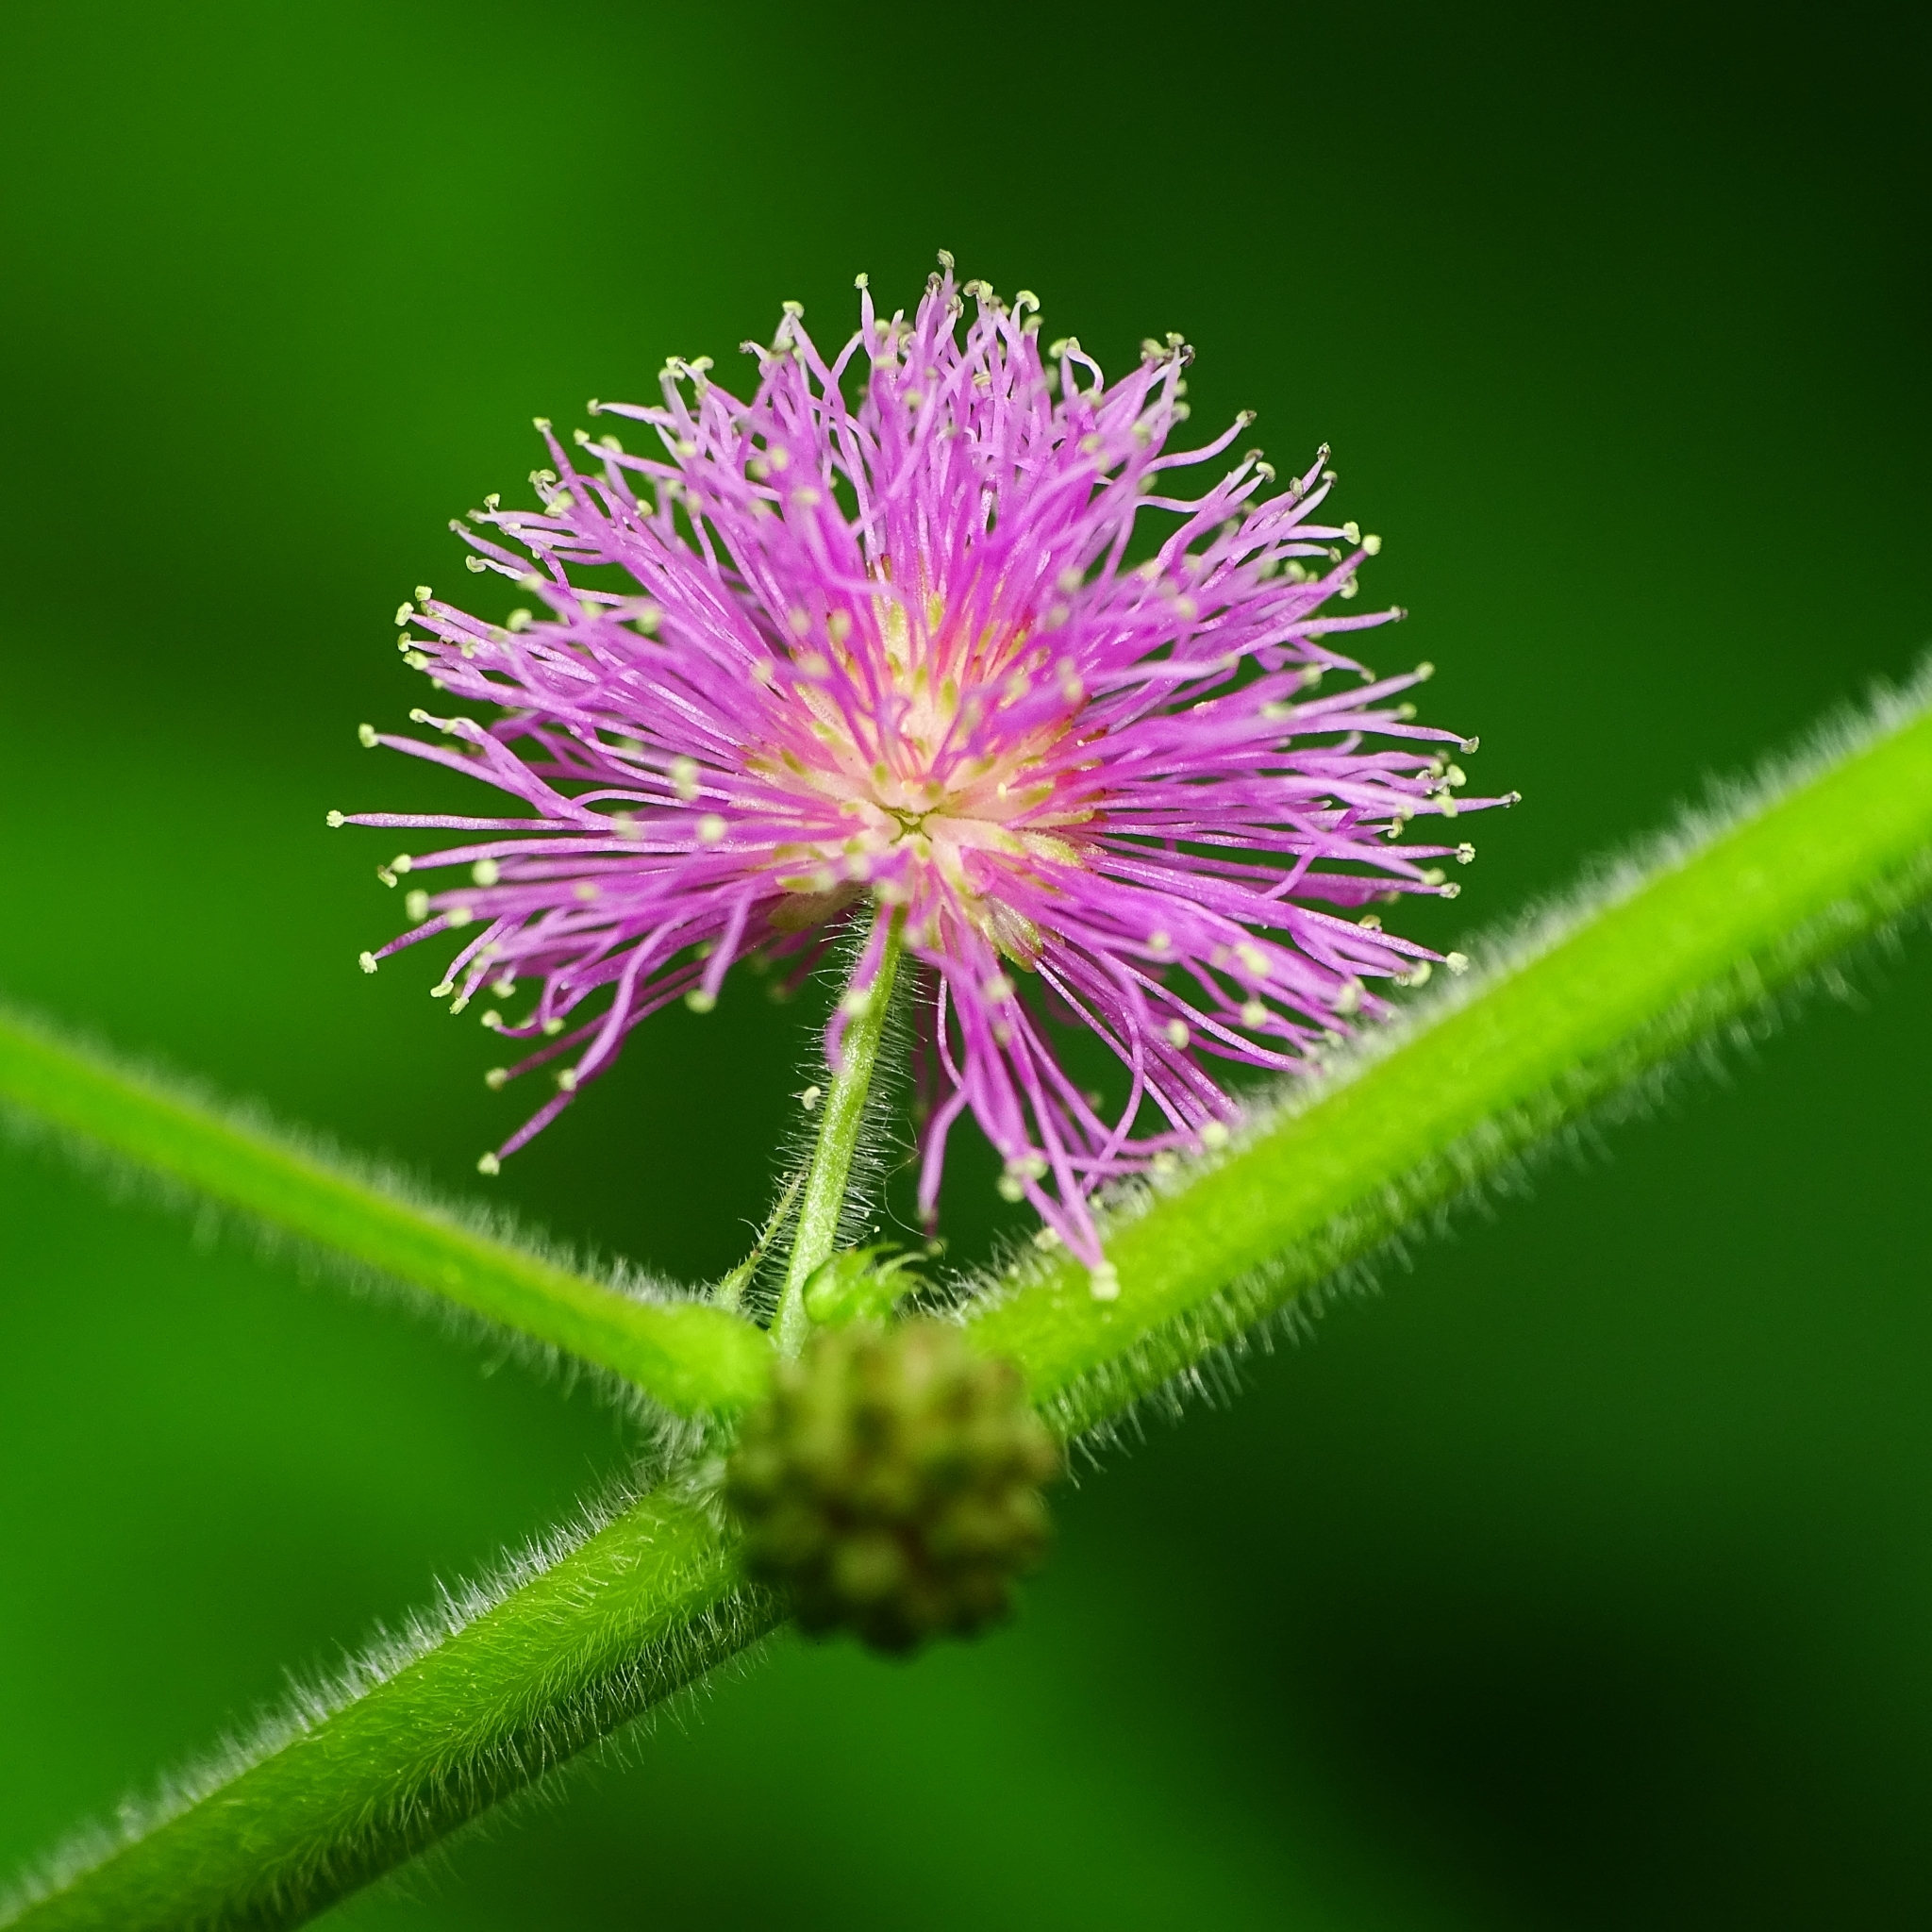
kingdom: Plantae
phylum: Tracheophyta
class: Magnoliopsida
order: Fabales
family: Fabaceae
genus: Mimosa
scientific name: Mimosa diplotricha
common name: Giant sensitive-plant
